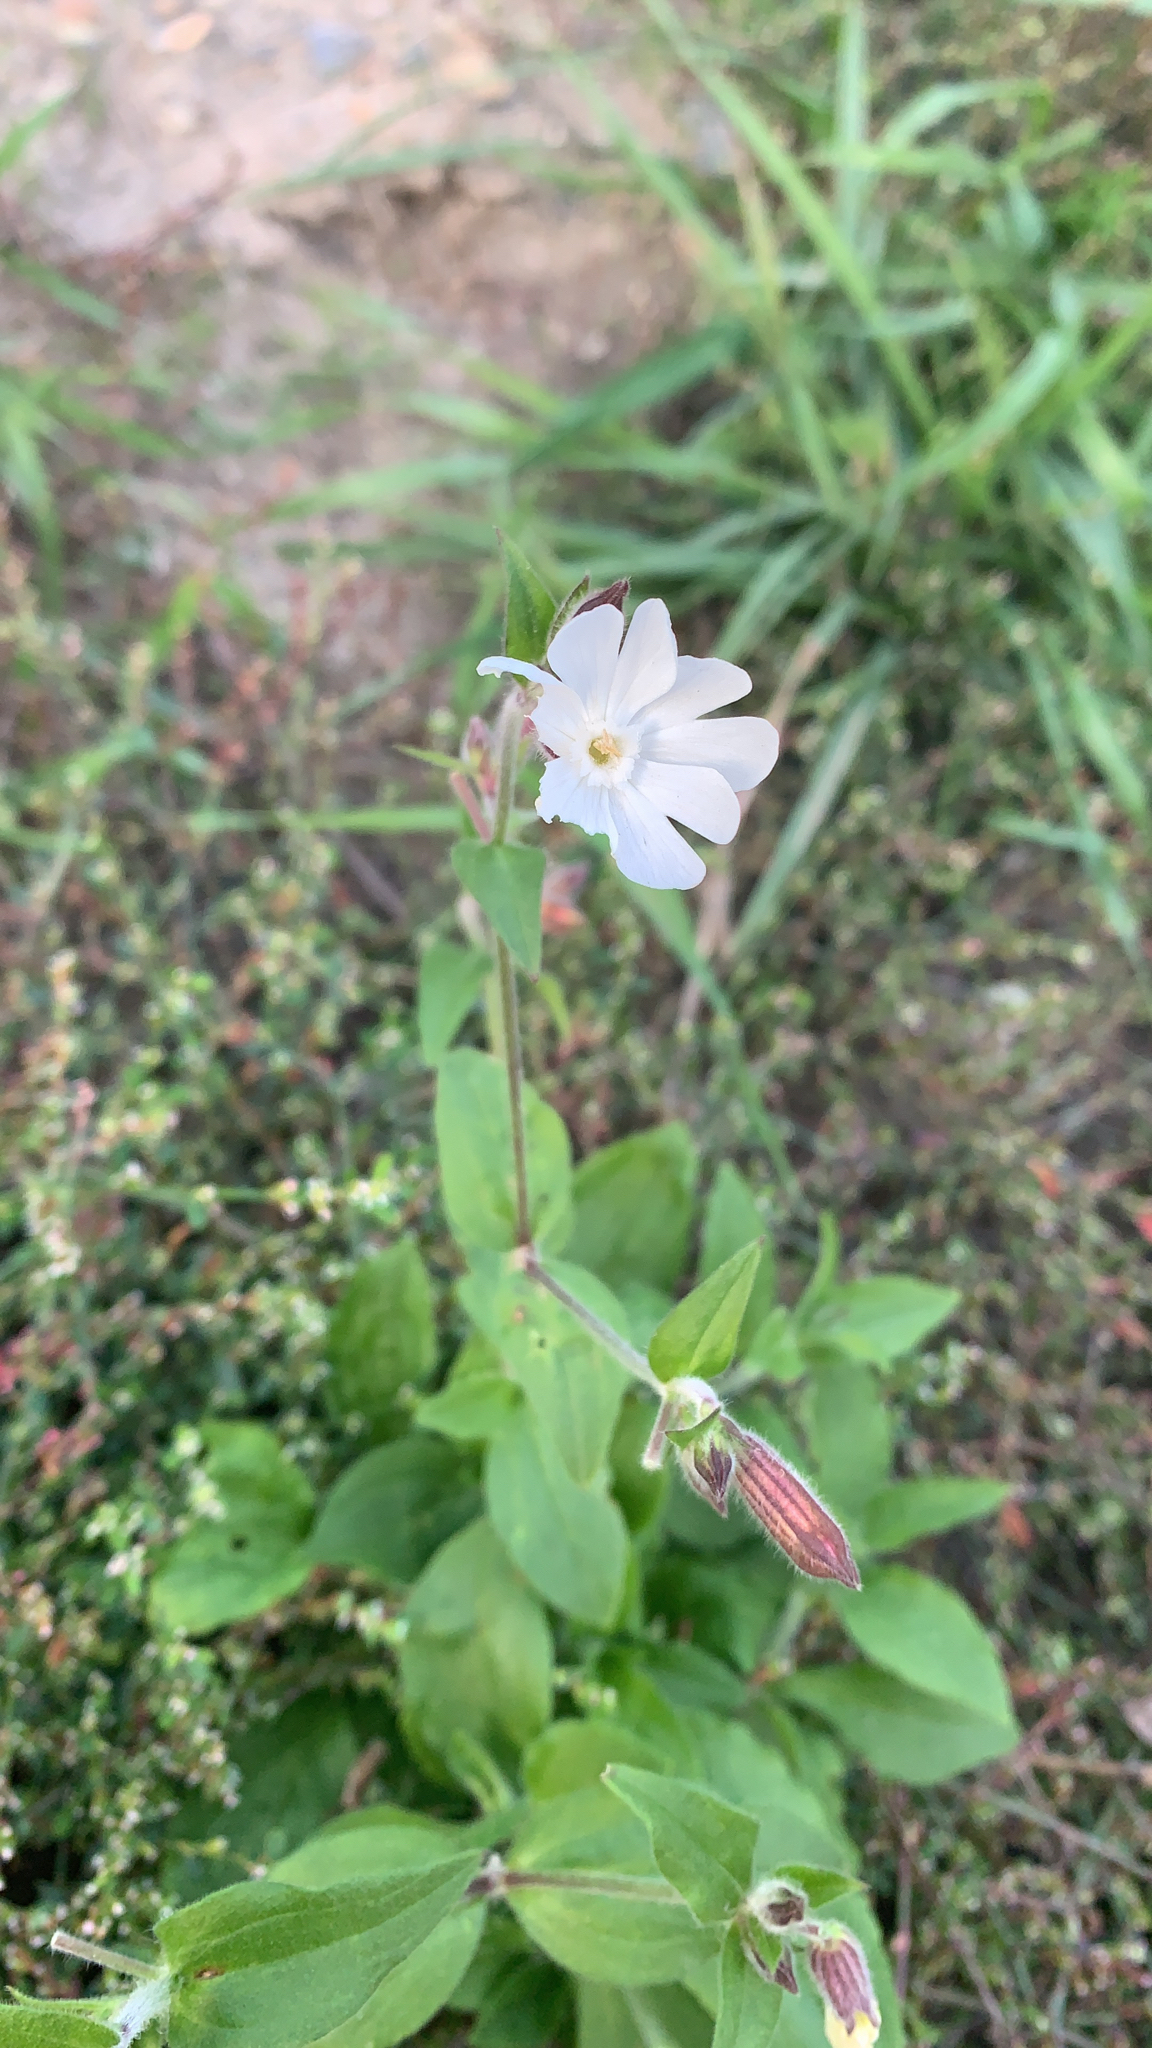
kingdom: Plantae
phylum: Tracheophyta
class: Magnoliopsida
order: Caryophyllales
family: Caryophyllaceae
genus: Silene
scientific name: Silene latifolia
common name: White campion
